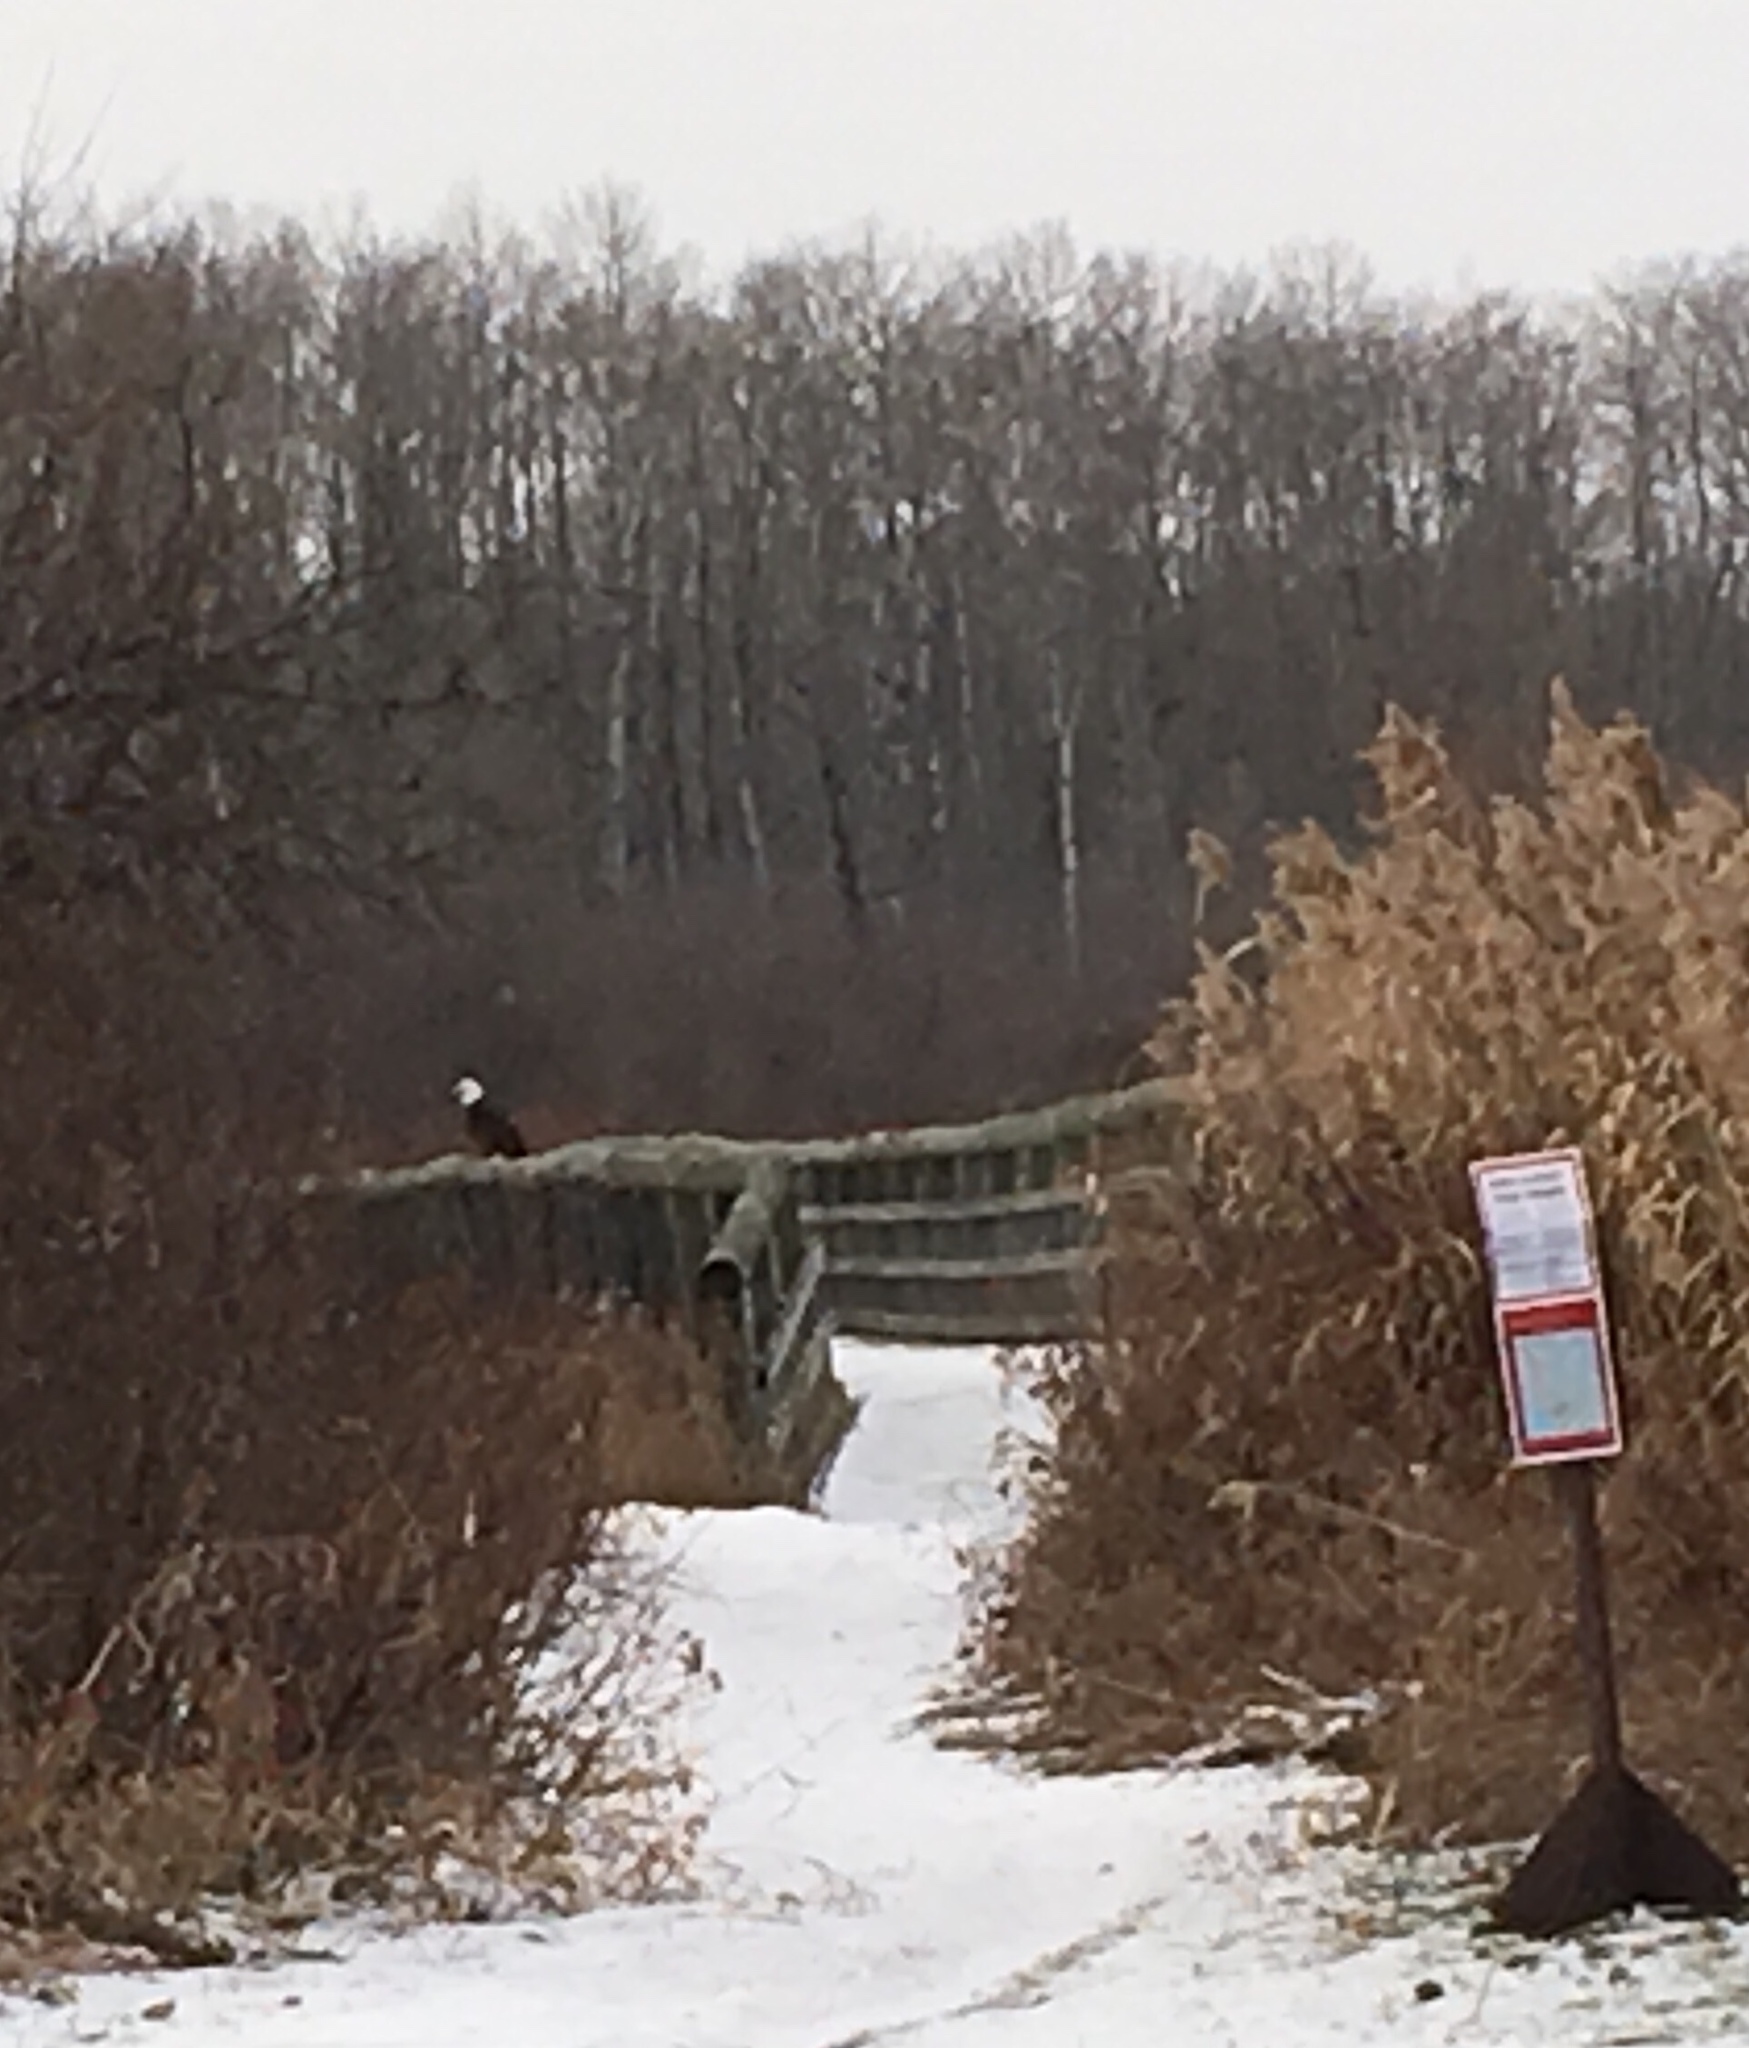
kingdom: Animalia
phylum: Chordata
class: Aves
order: Accipitriformes
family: Accipitridae
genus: Haliaeetus
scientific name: Haliaeetus leucocephalus
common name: Bald eagle
